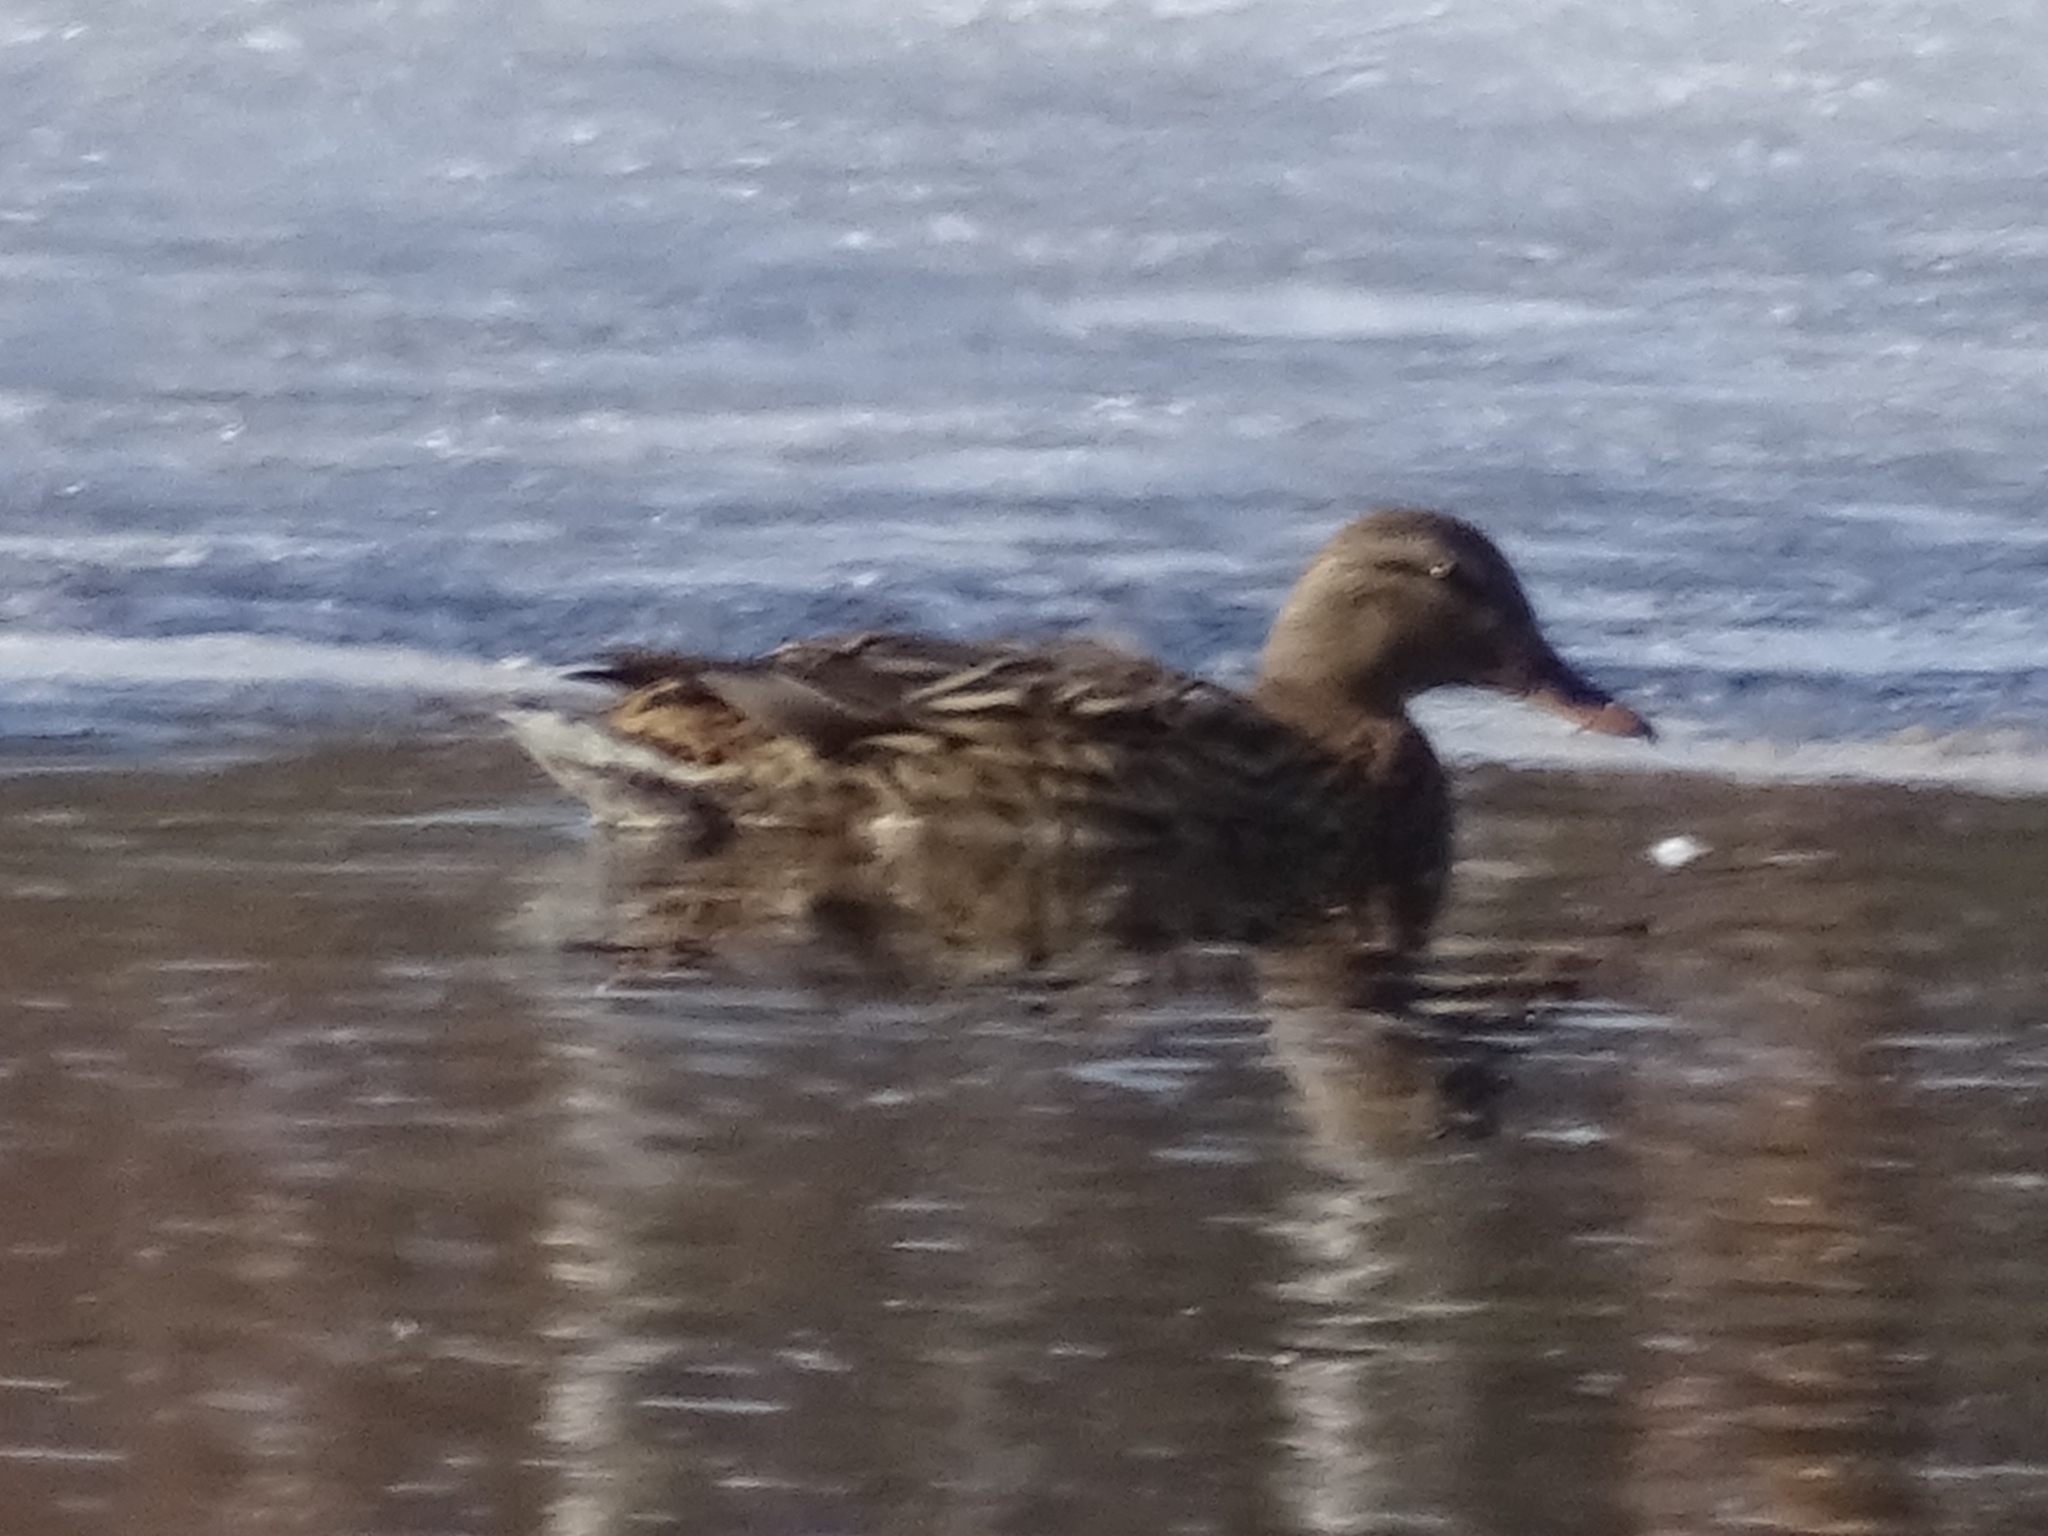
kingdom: Animalia
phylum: Chordata
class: Aves
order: Anseriformes
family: Anatidae
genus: Anas
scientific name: Anas platyrhynchos
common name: Mallard
